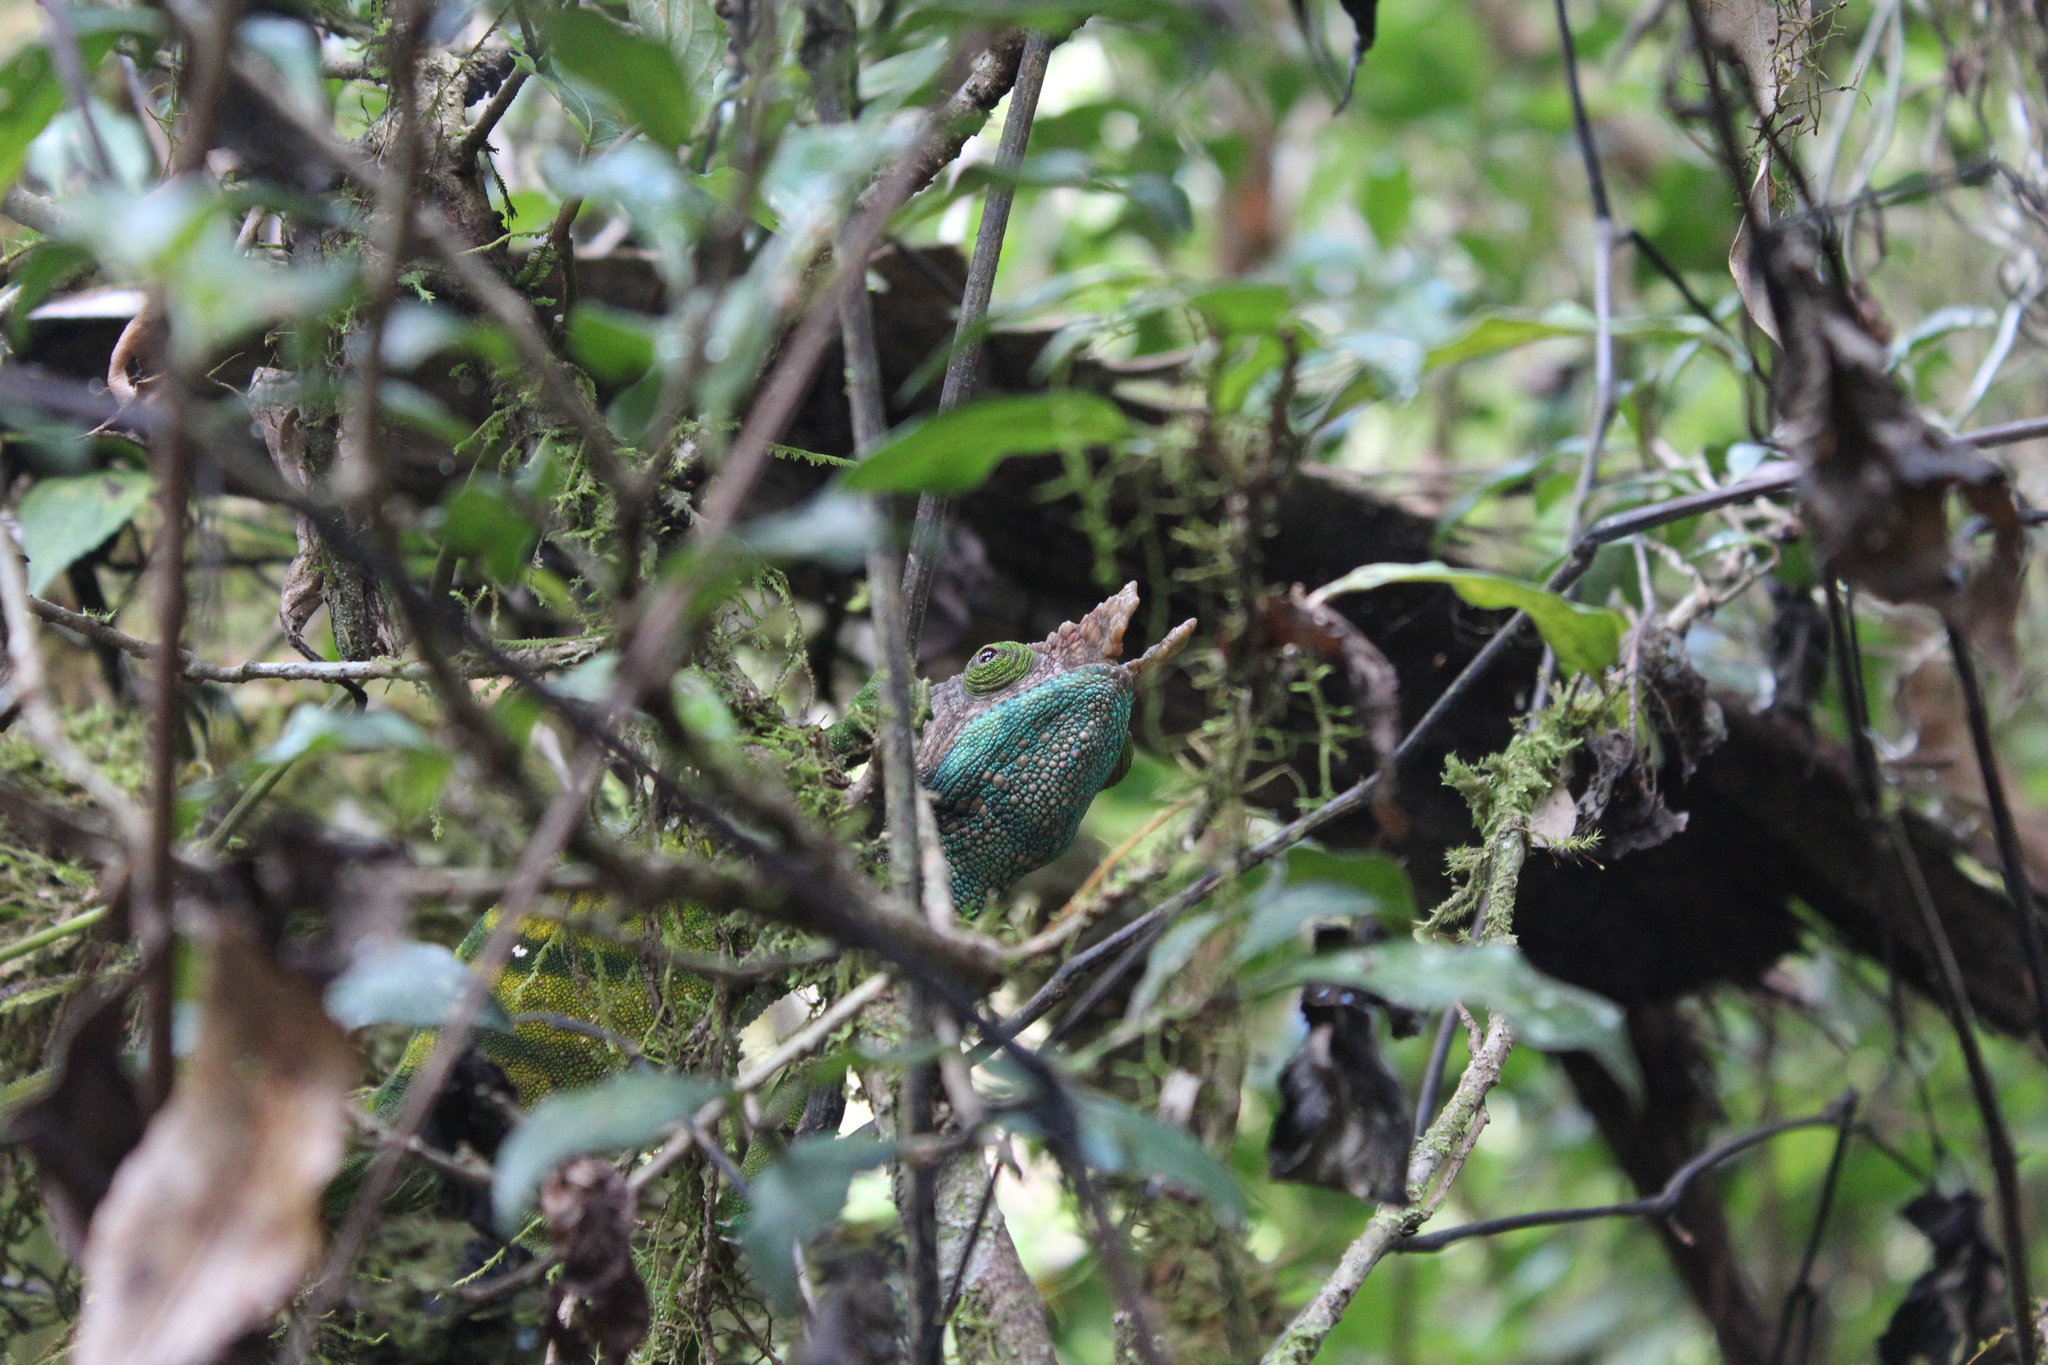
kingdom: Animalia
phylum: Chordata
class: Squamata
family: Chamaeleonidae
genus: Calumma
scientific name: Calumma oshaughnessyi
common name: O'shaughnessy's chameleon
